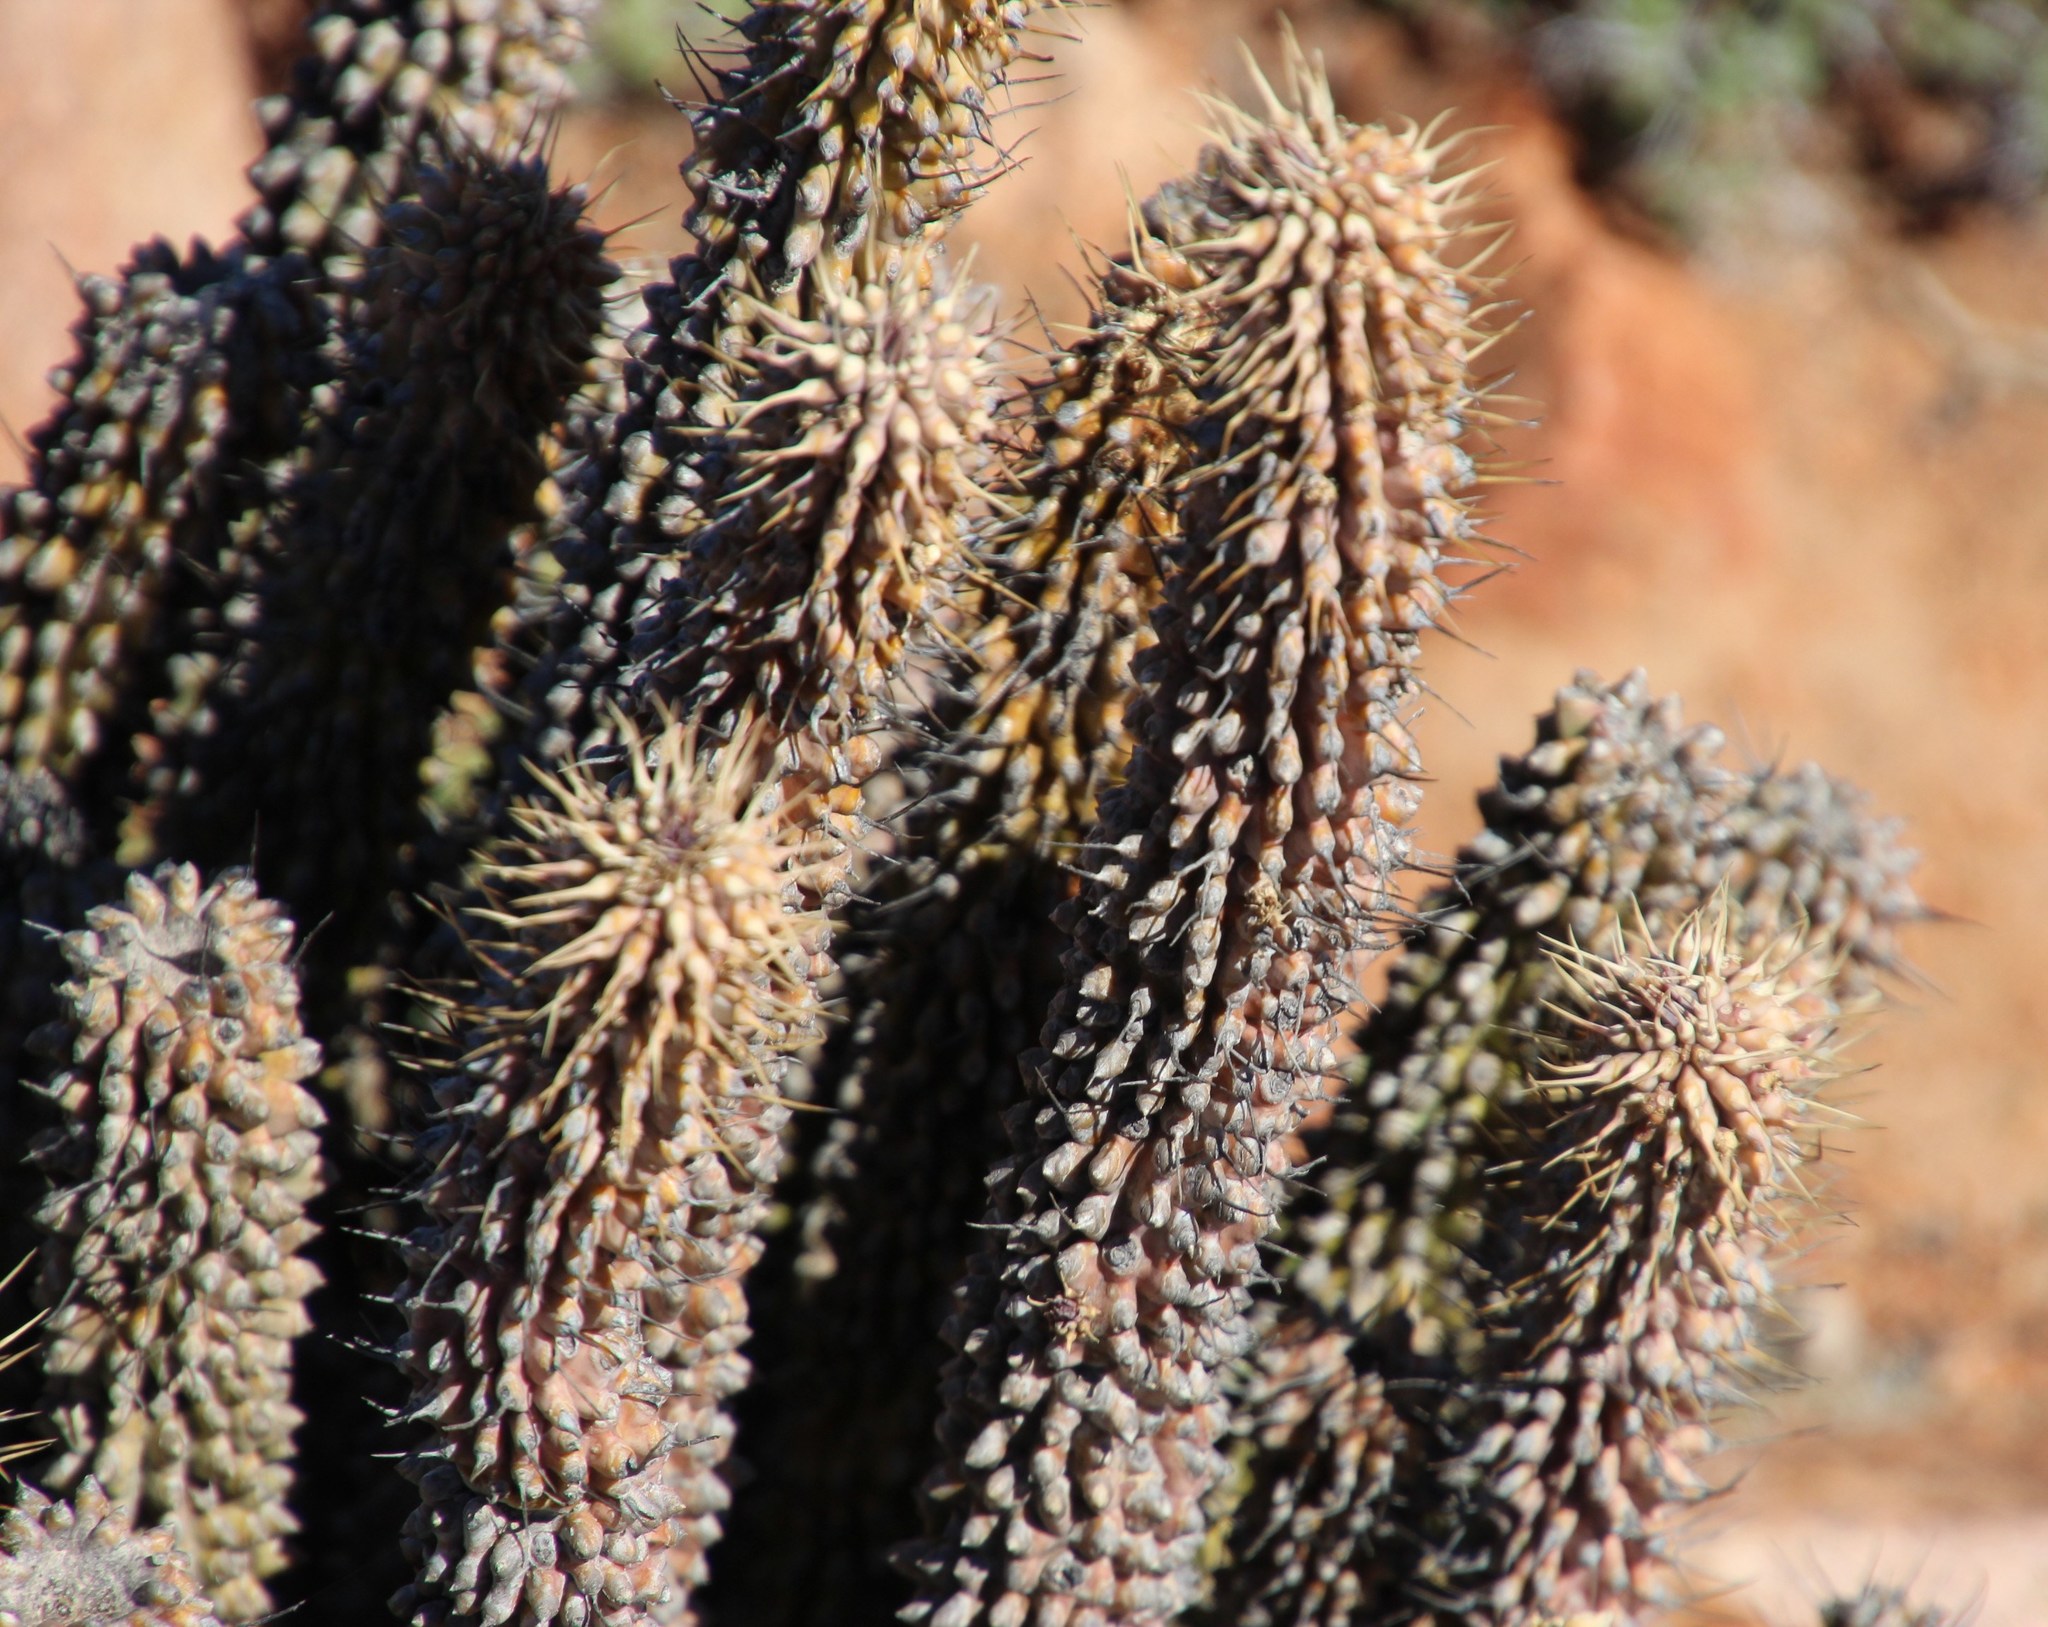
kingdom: Plantae
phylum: Tracheophyta
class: Magnoliopsida
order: Gentianales
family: Apocynaceae
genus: Hoodia
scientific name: Hoodia gordonii
